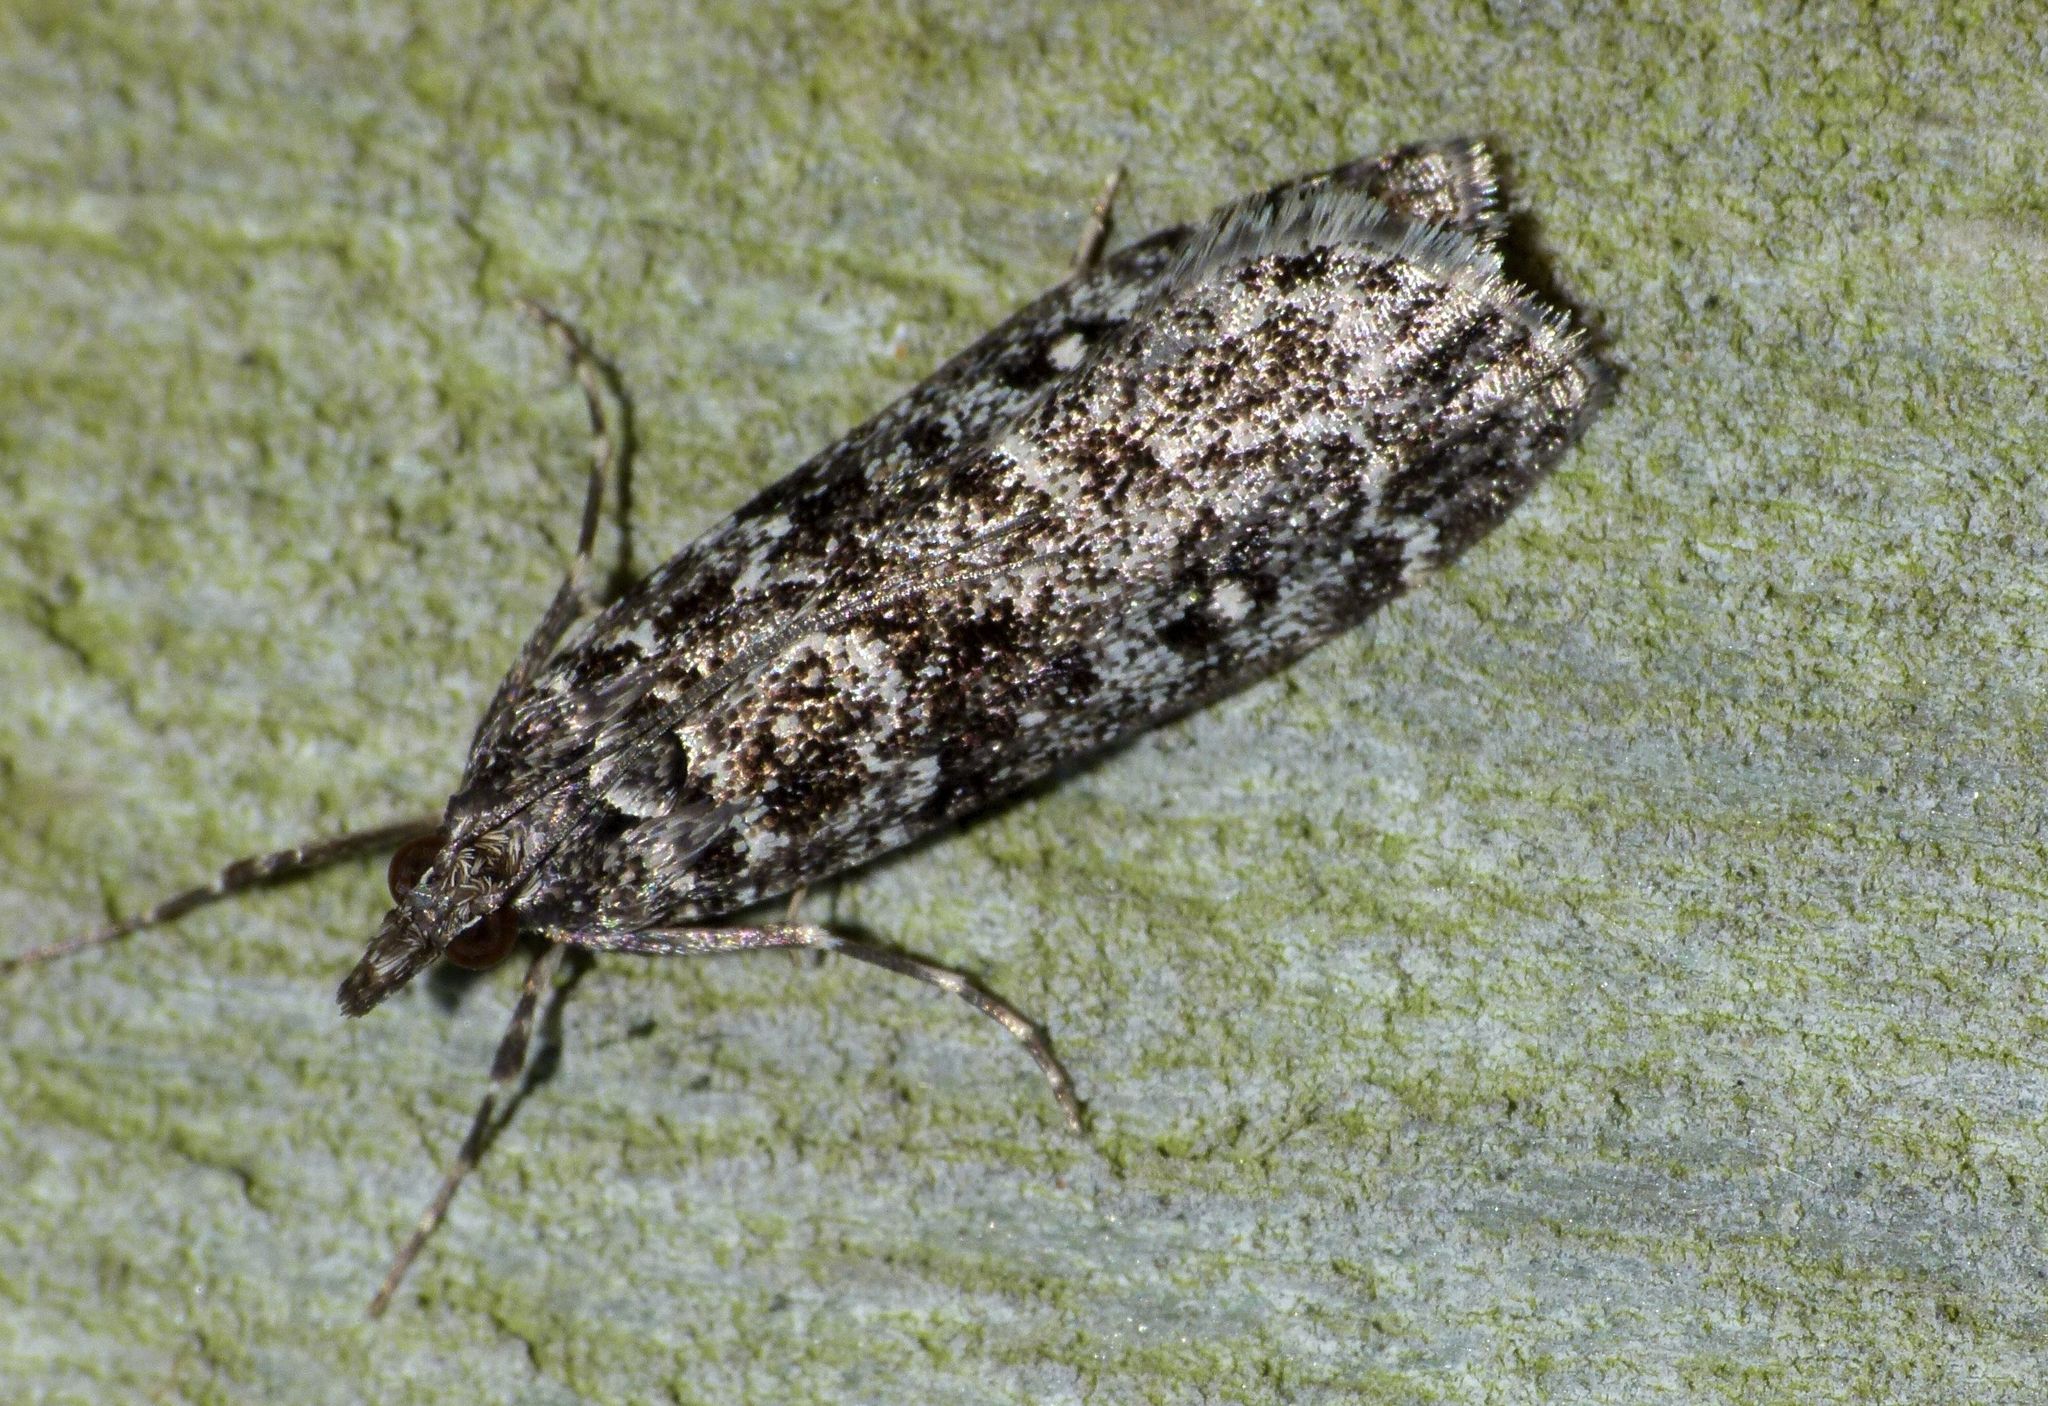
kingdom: Animalia
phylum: Arthropoda
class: Insecta
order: Lepidoptera
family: Crambidae
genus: Eudonia
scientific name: Eudonia philerga
